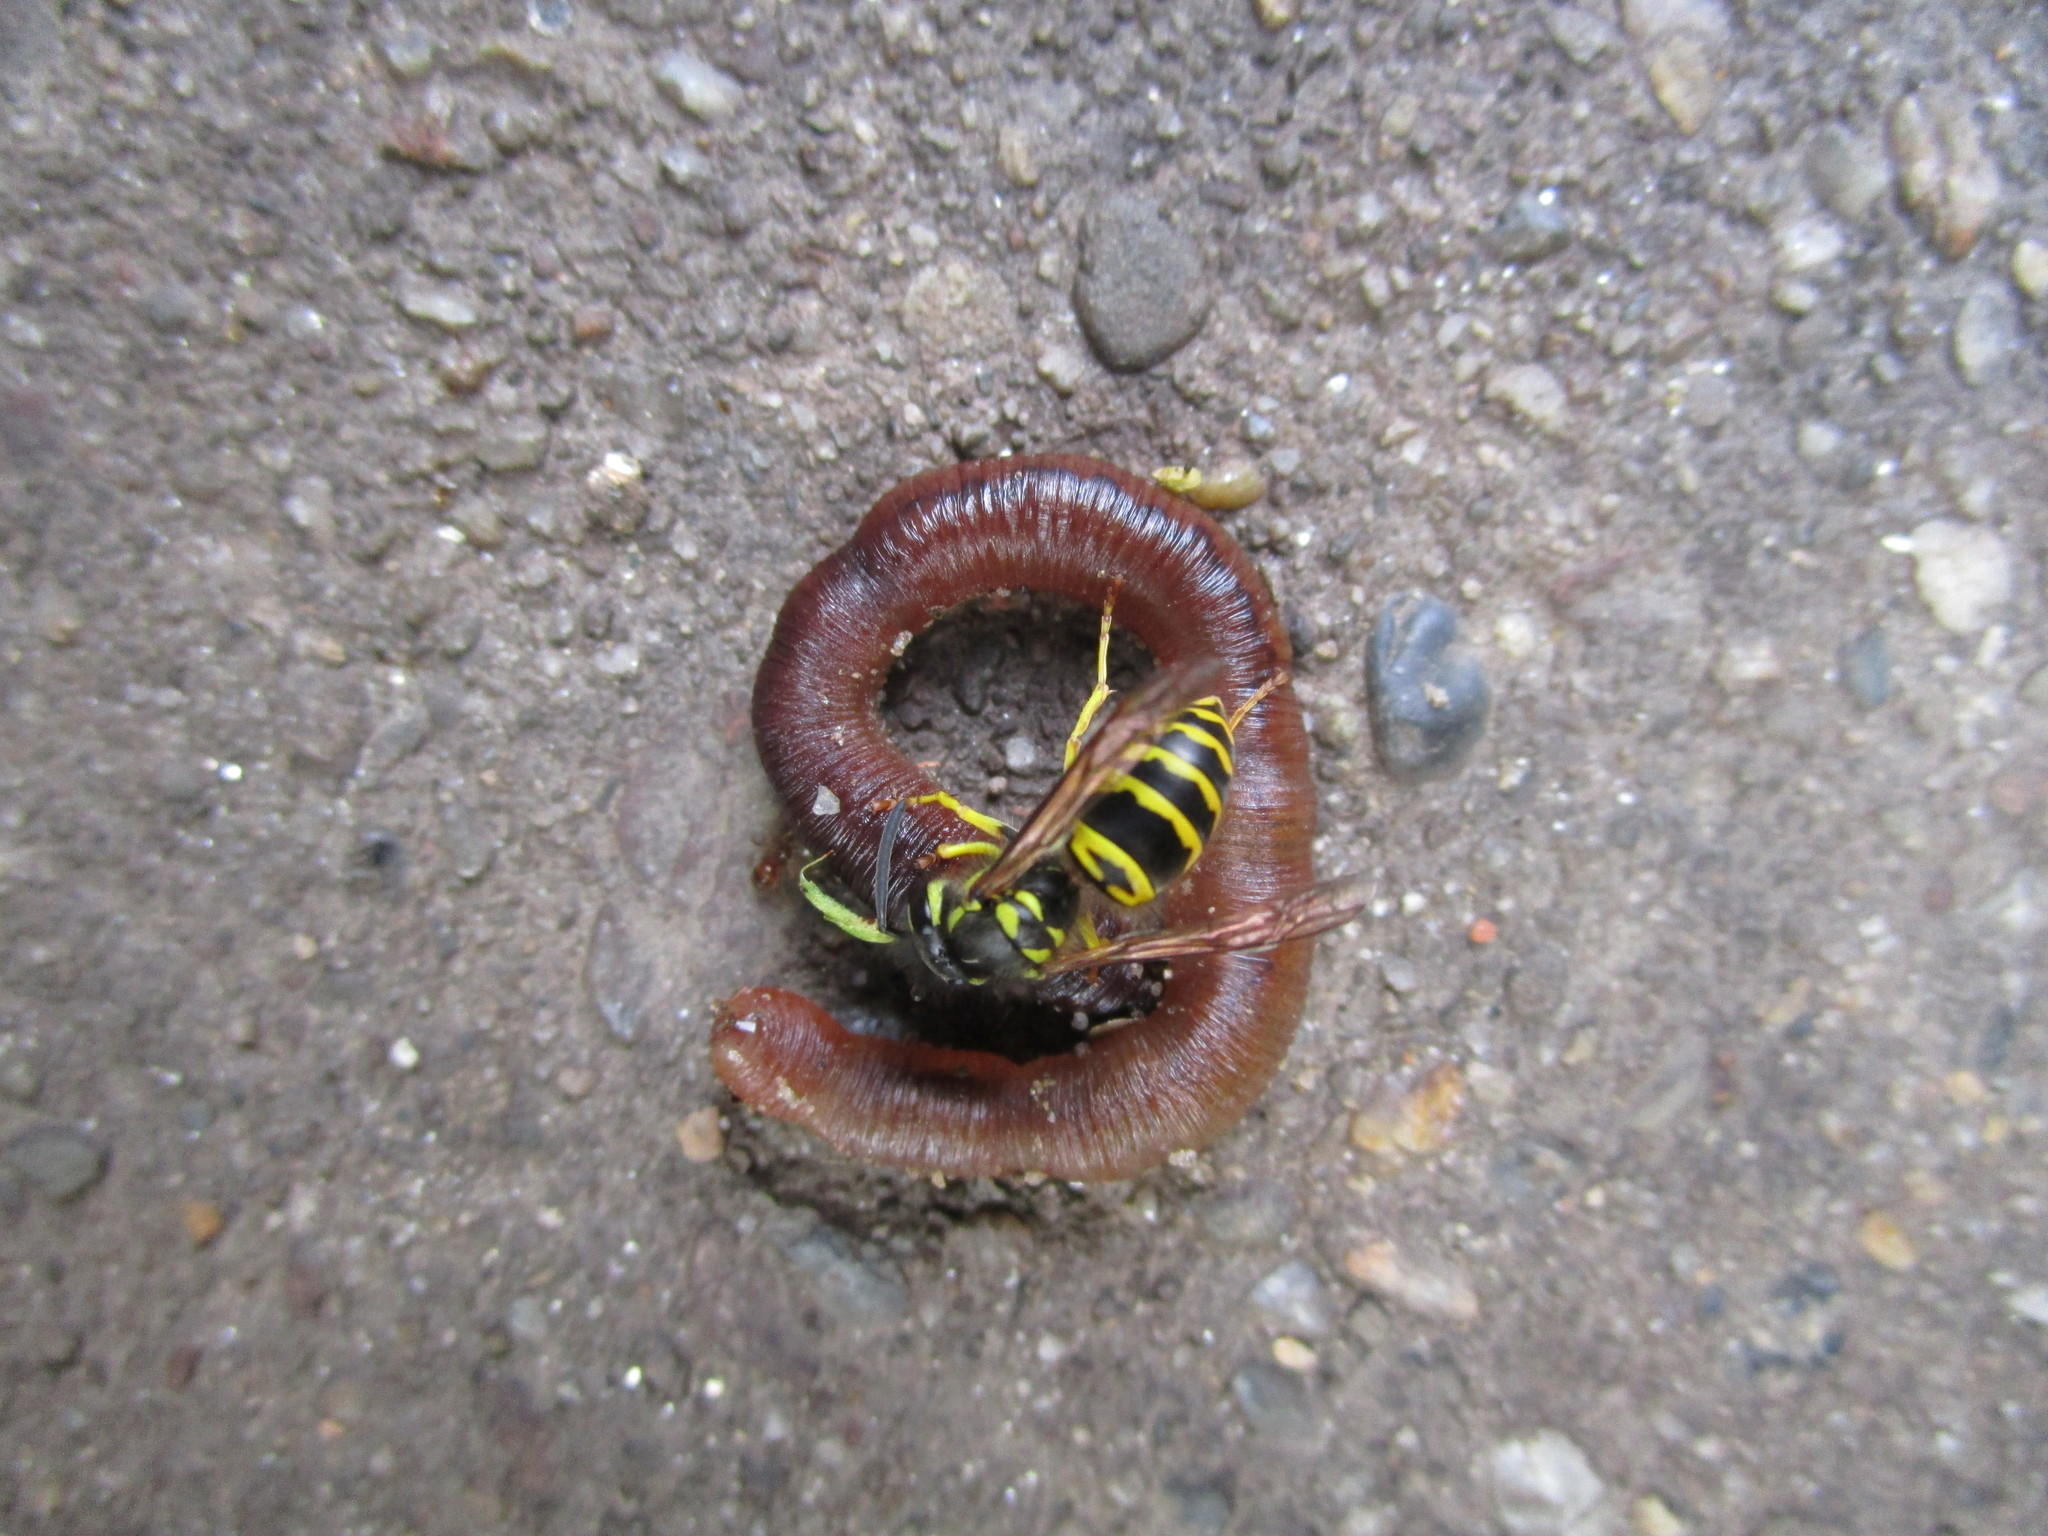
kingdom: Animalia
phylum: Arthropoda
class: Insecta
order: Hymenoptera
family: Vespidae
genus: Vespula
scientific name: Vespula maculifrons
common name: Eastern yellowjacket
